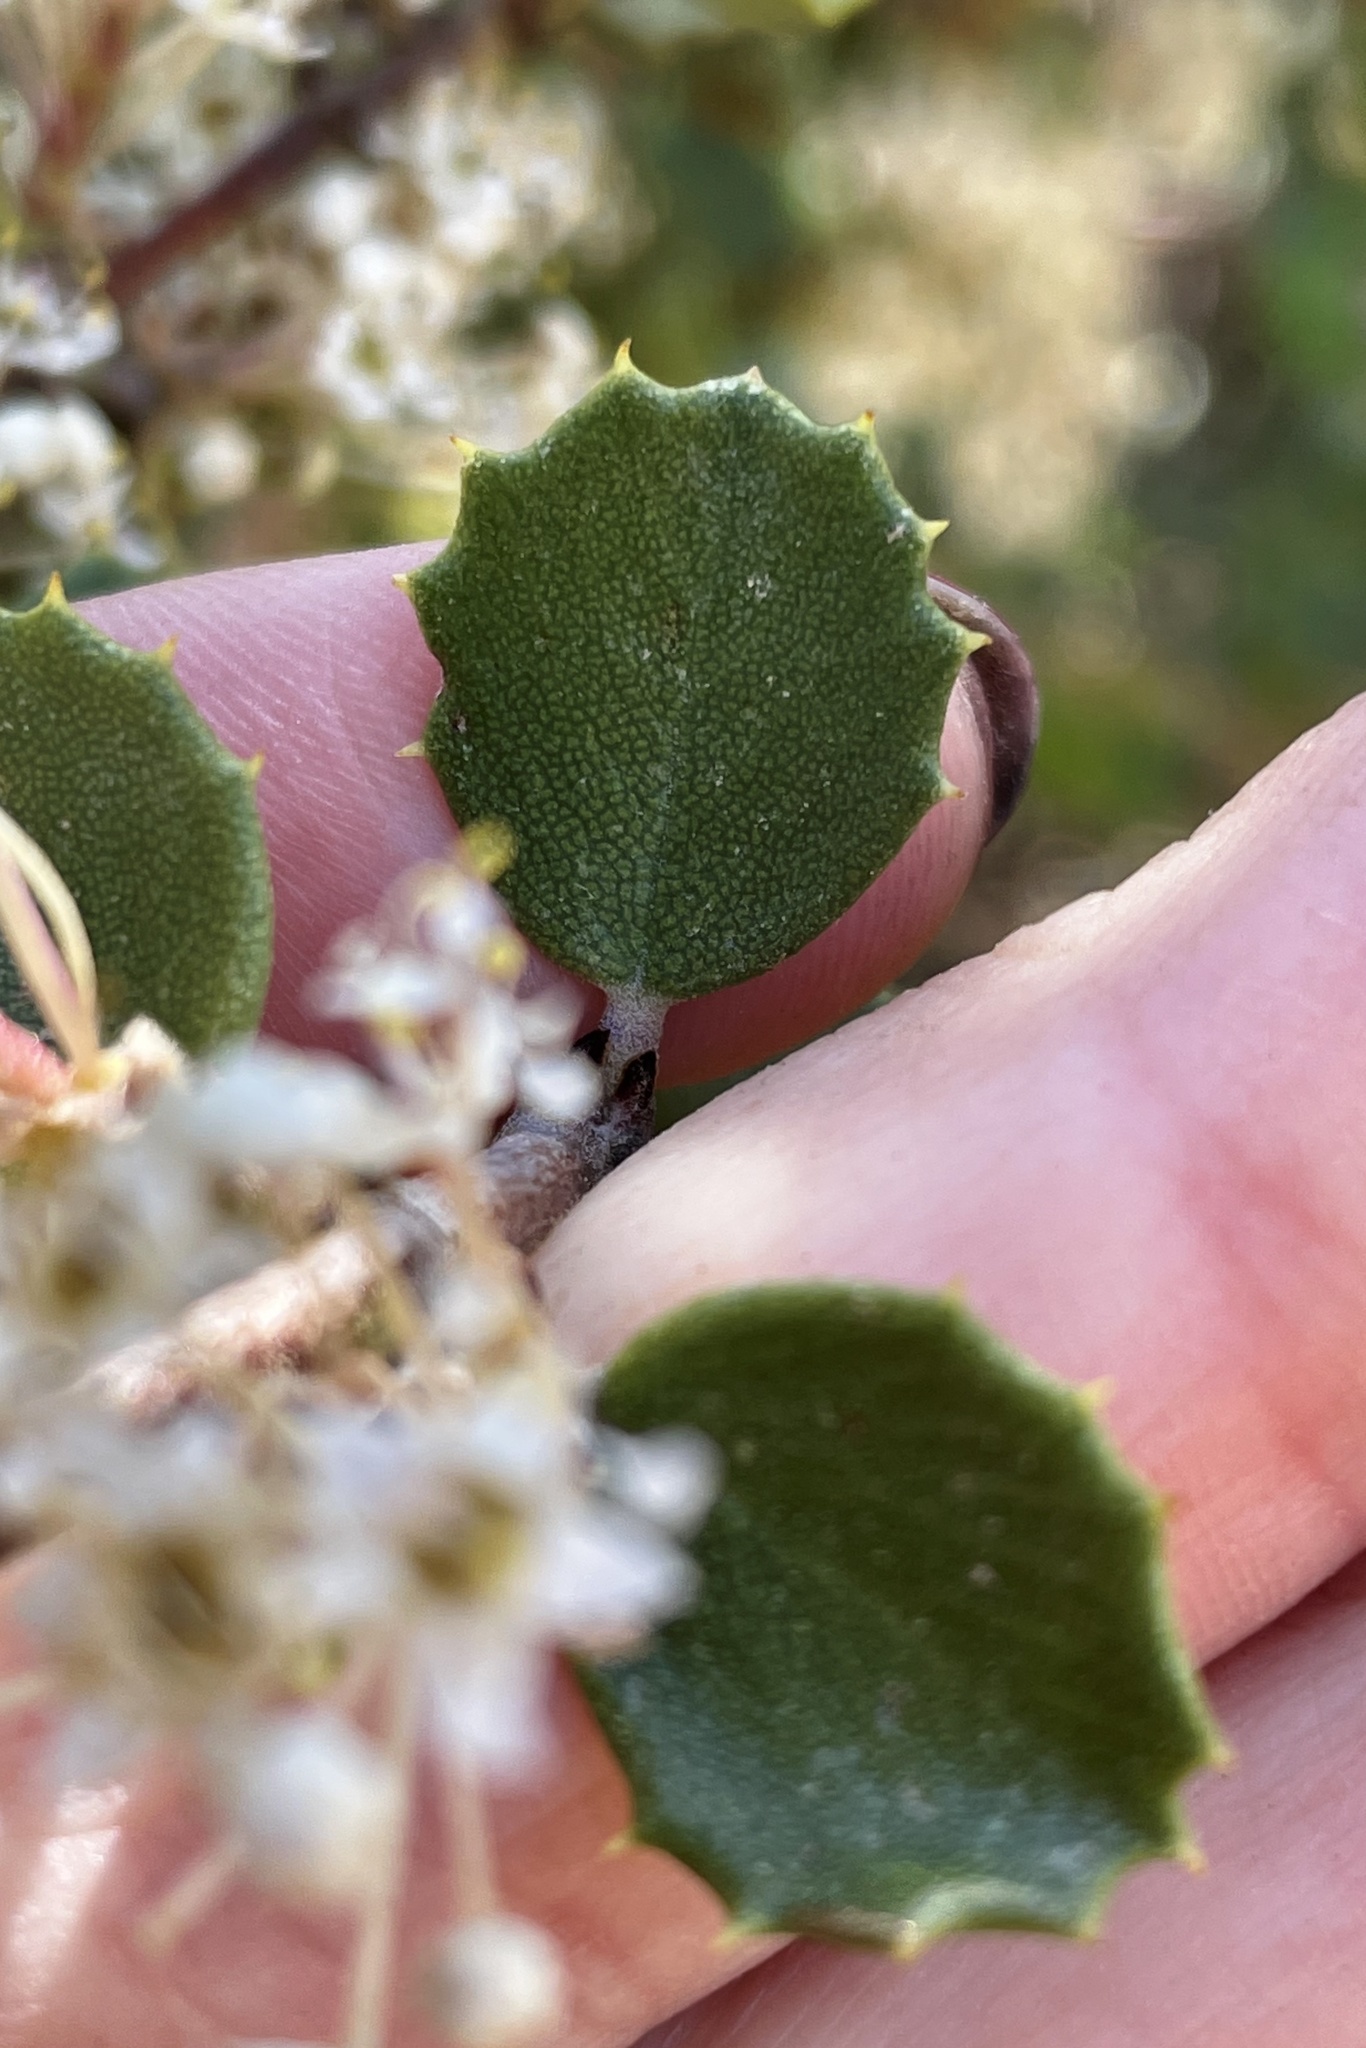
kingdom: Plantae
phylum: Tracheophyta
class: Magnoliopsida
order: Rosales
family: Rhamnaceae
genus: Ceanothus
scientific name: Ceanothus perplexans
